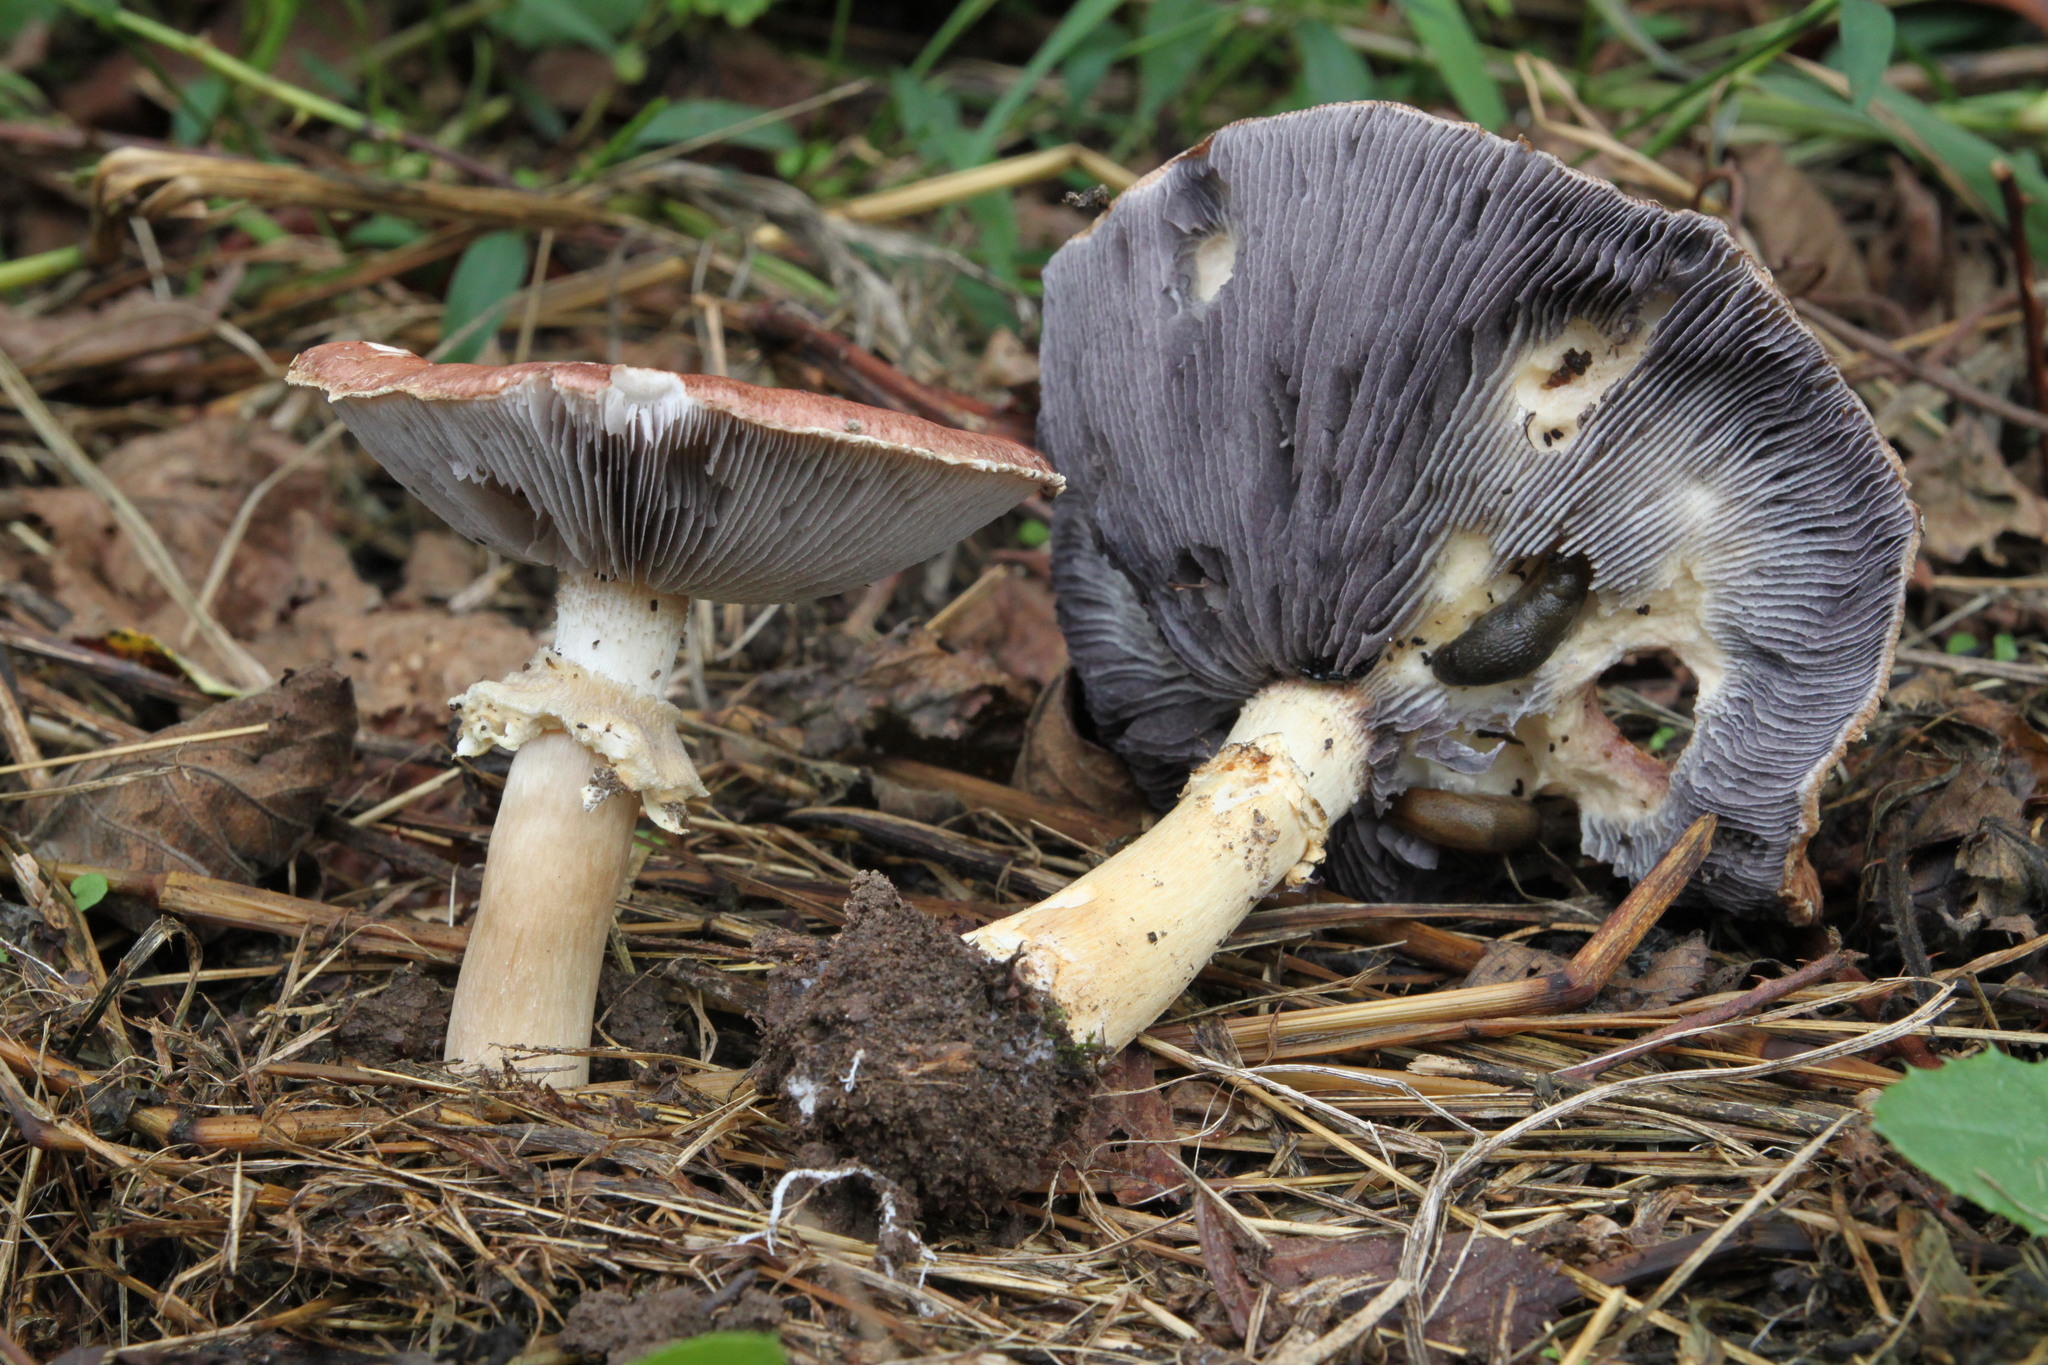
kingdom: Fungi
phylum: Basidiomycota
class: Agaricomycetes
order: Agaricales
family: Strophariaceae
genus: Stropharia
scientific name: Stropharia rugosoannulata
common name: Wine roundhead
